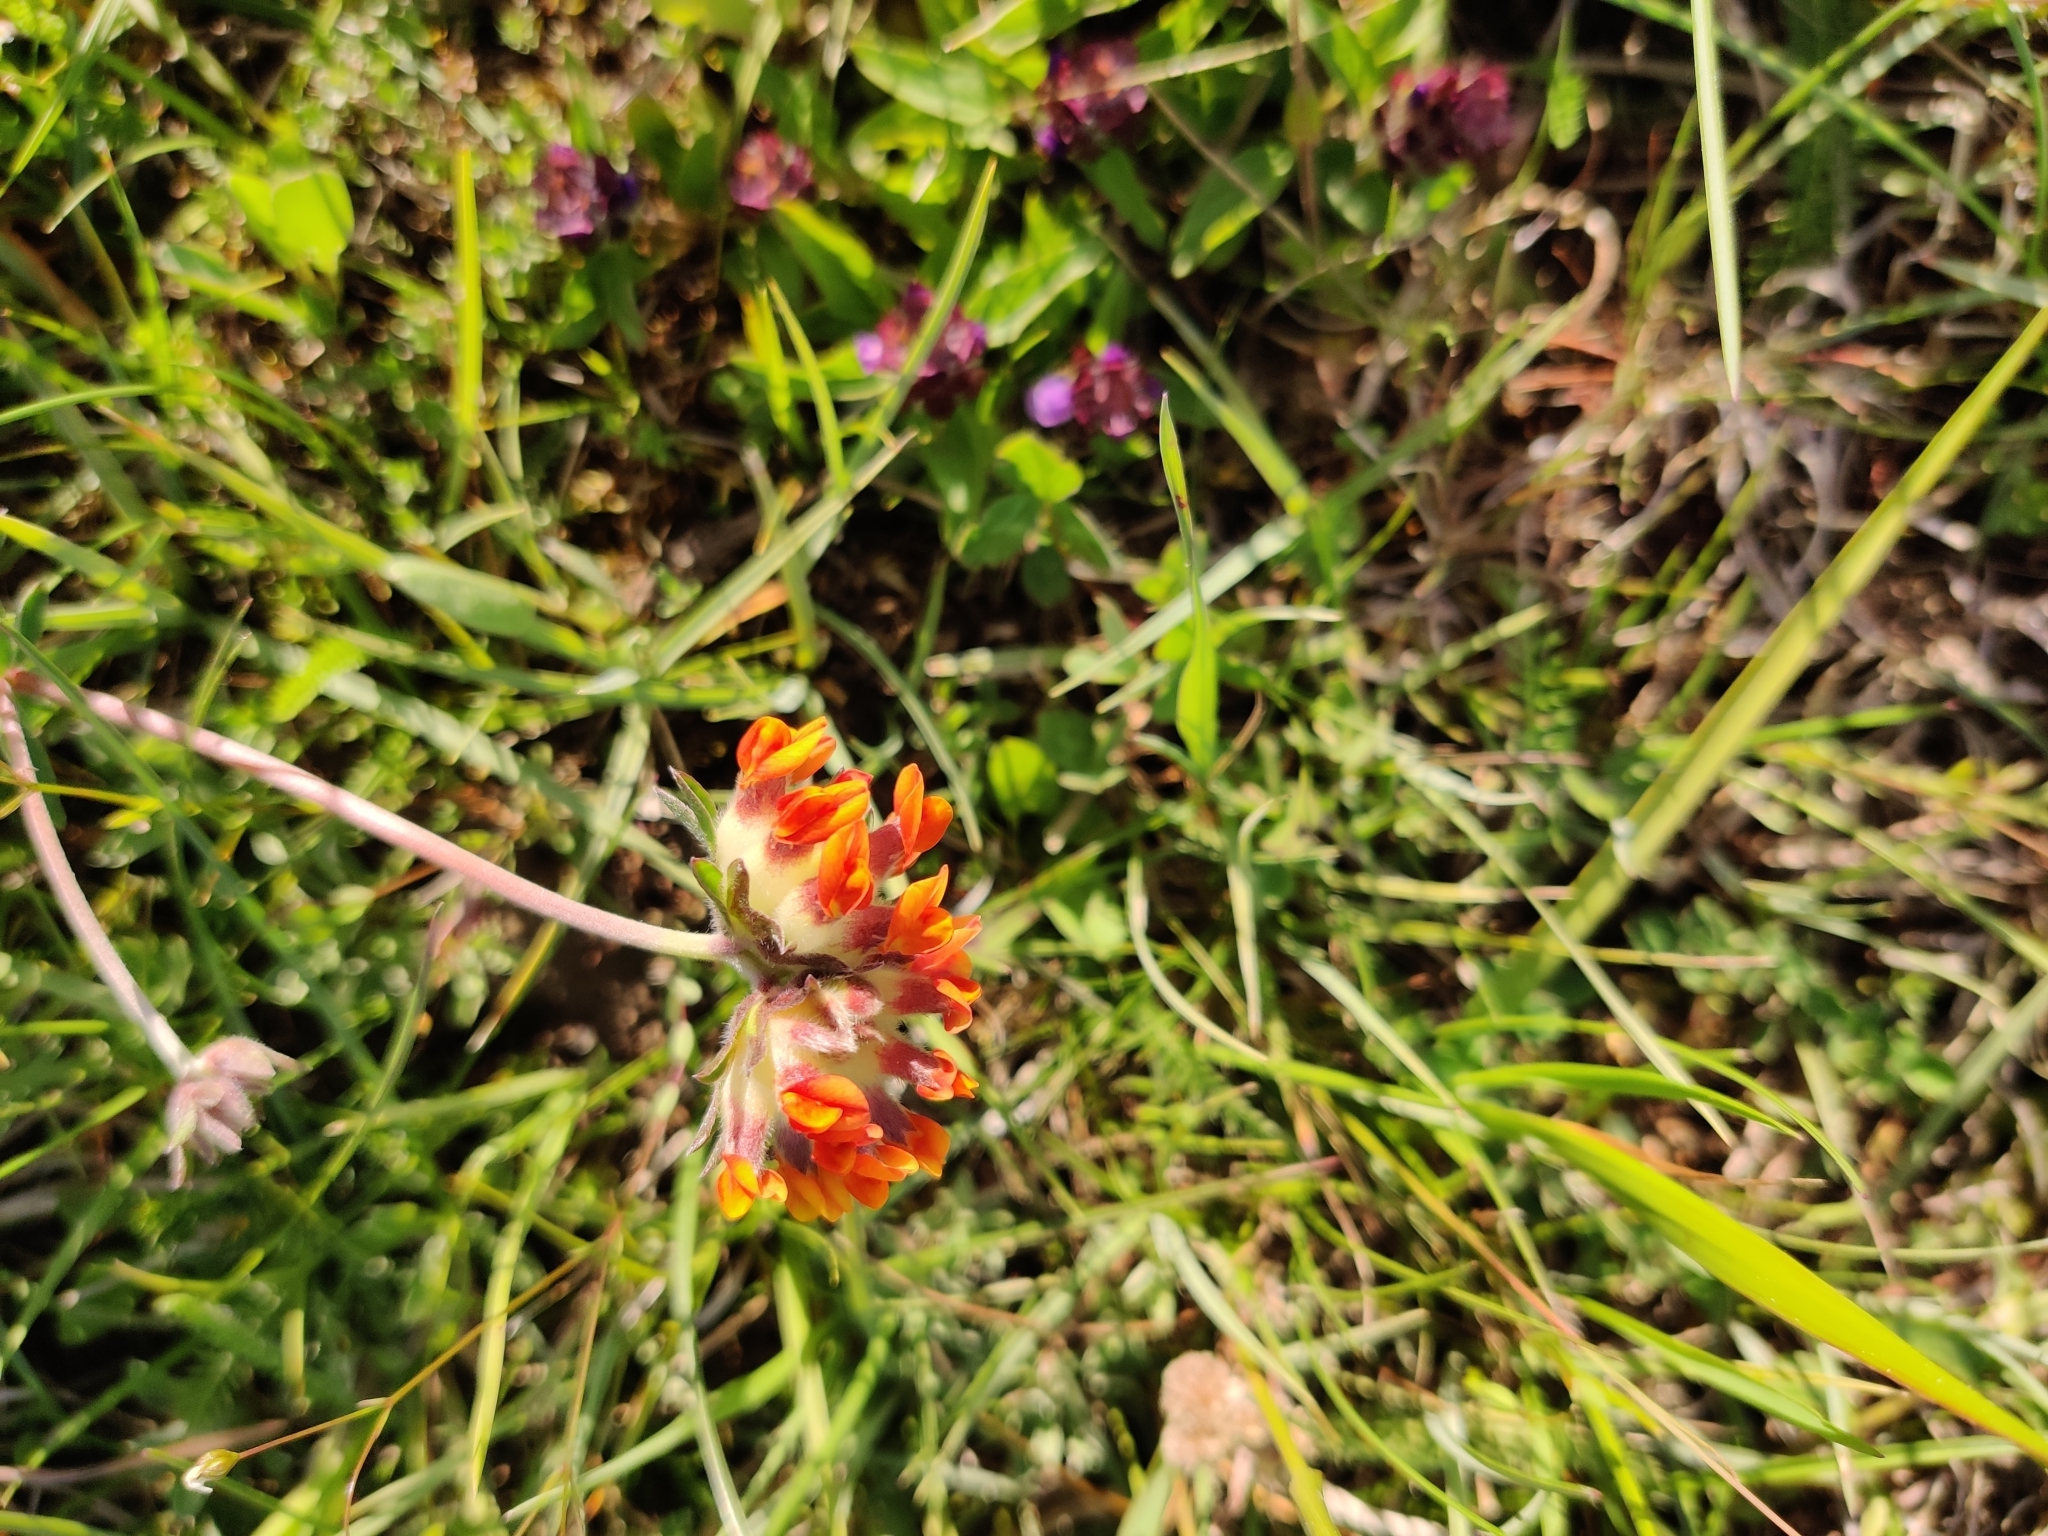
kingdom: Plantae
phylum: Tracheophyta
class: Magnoliopsida
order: Fabales
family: Fabaceae
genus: Anthyllis
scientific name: Anthyllis vulneraria
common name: Kidney vetch
